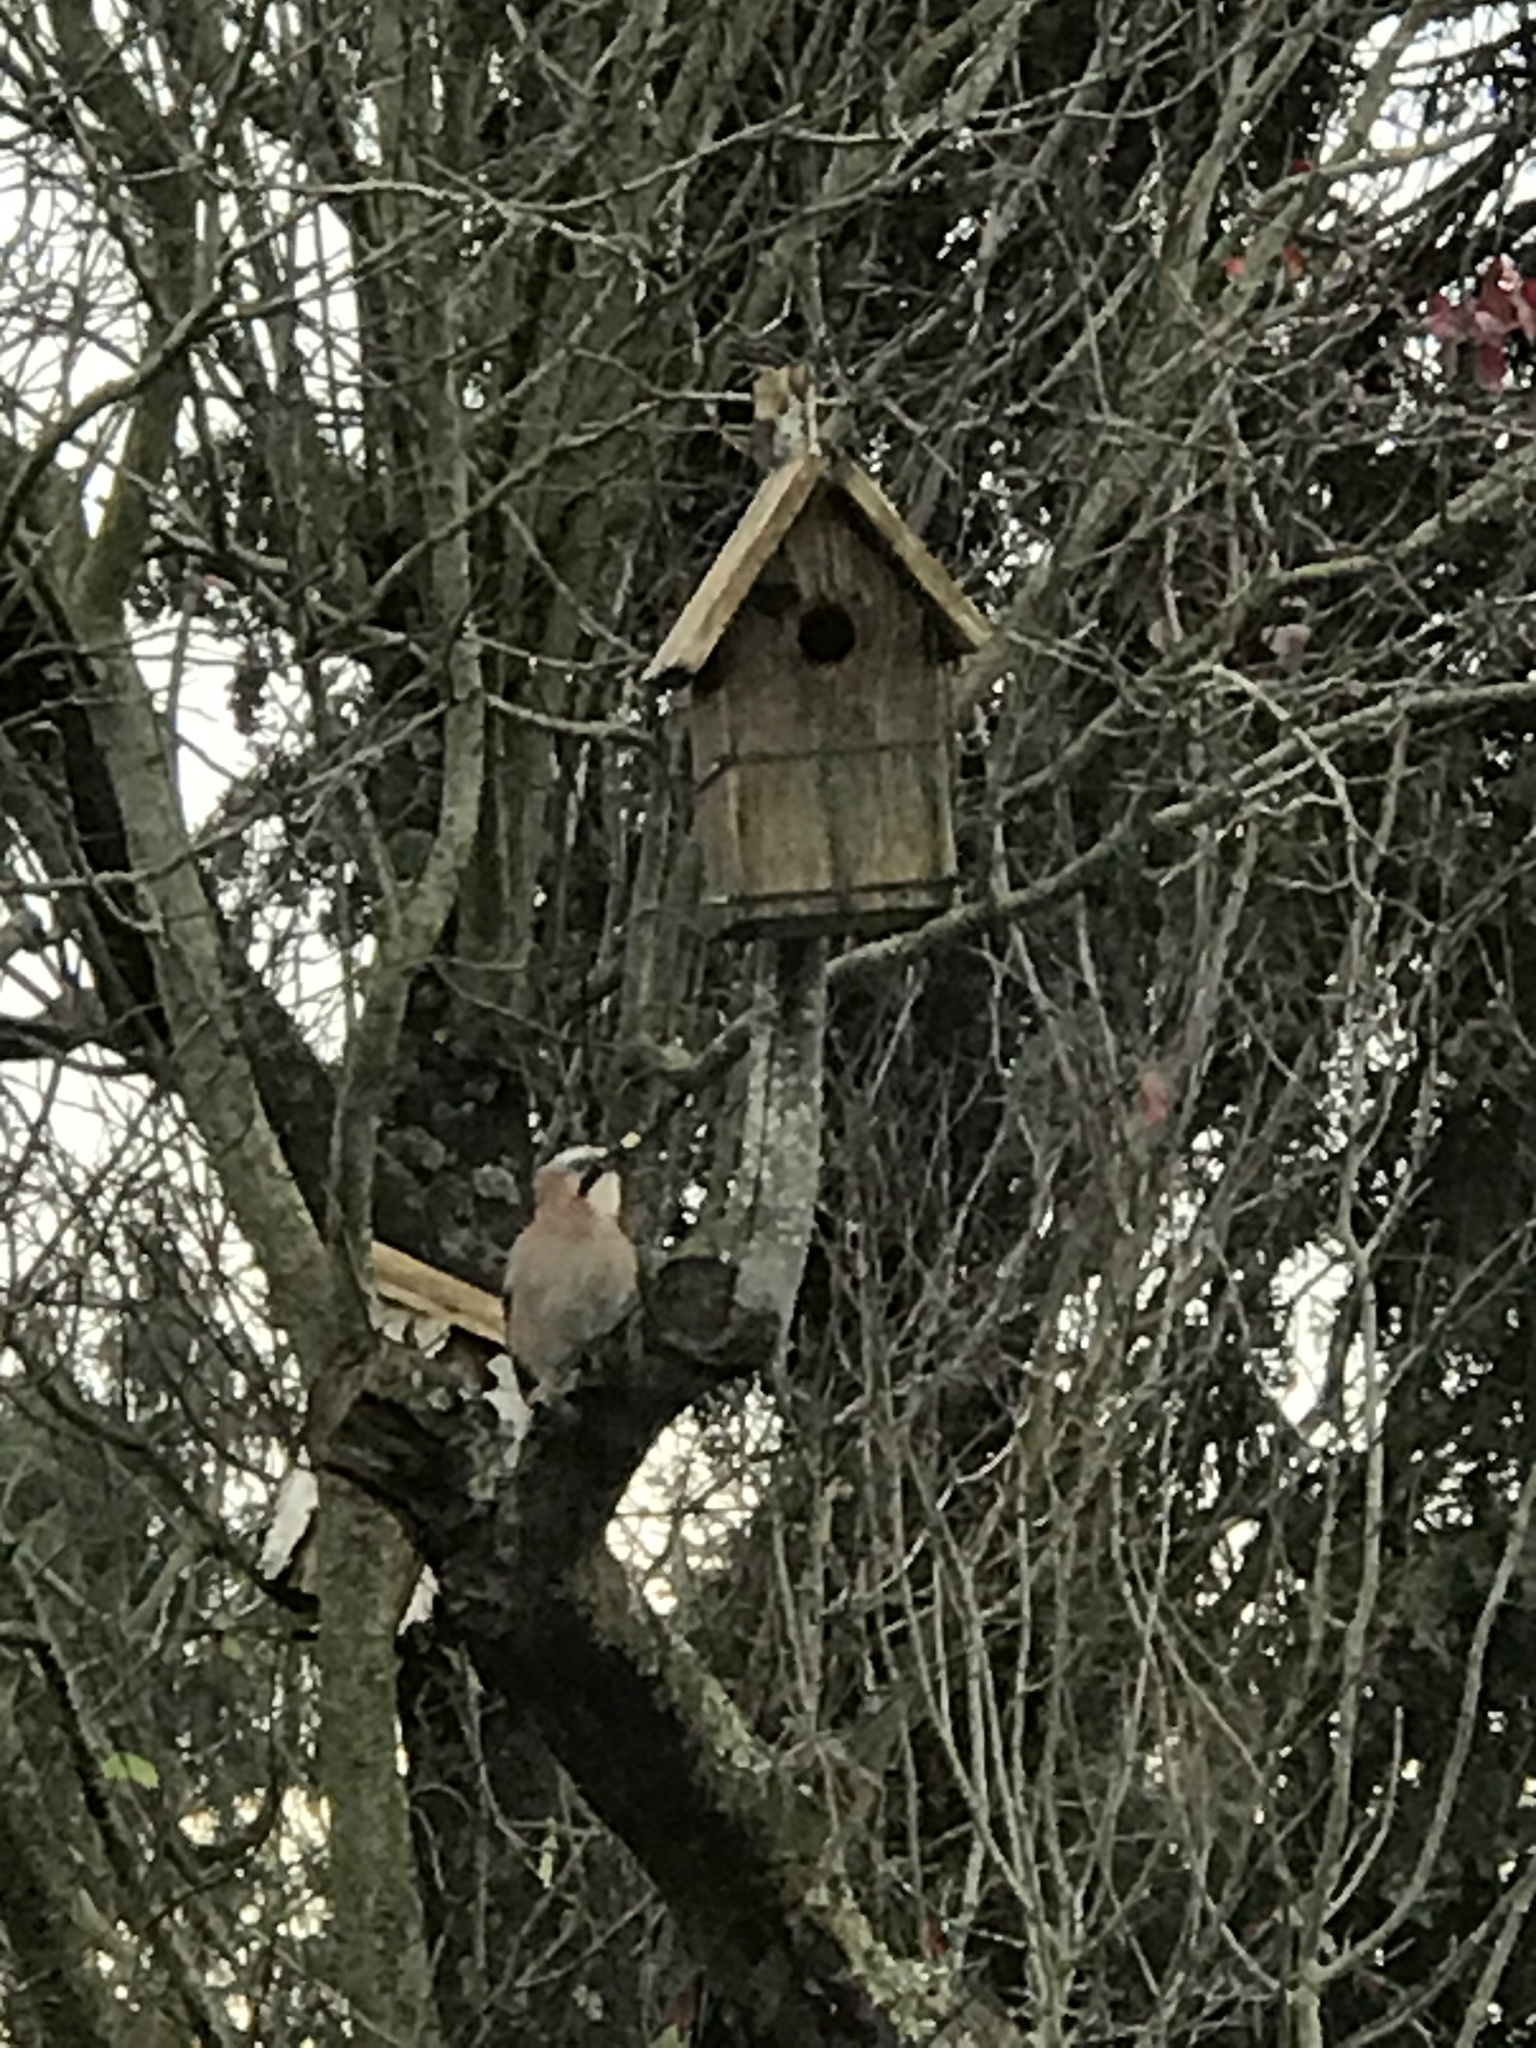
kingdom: Animalia
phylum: Chordata
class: Aves
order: Passeriformes
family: Corvidae
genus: Garrulus
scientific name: Garrulus glandarius
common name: Eurasian jay
